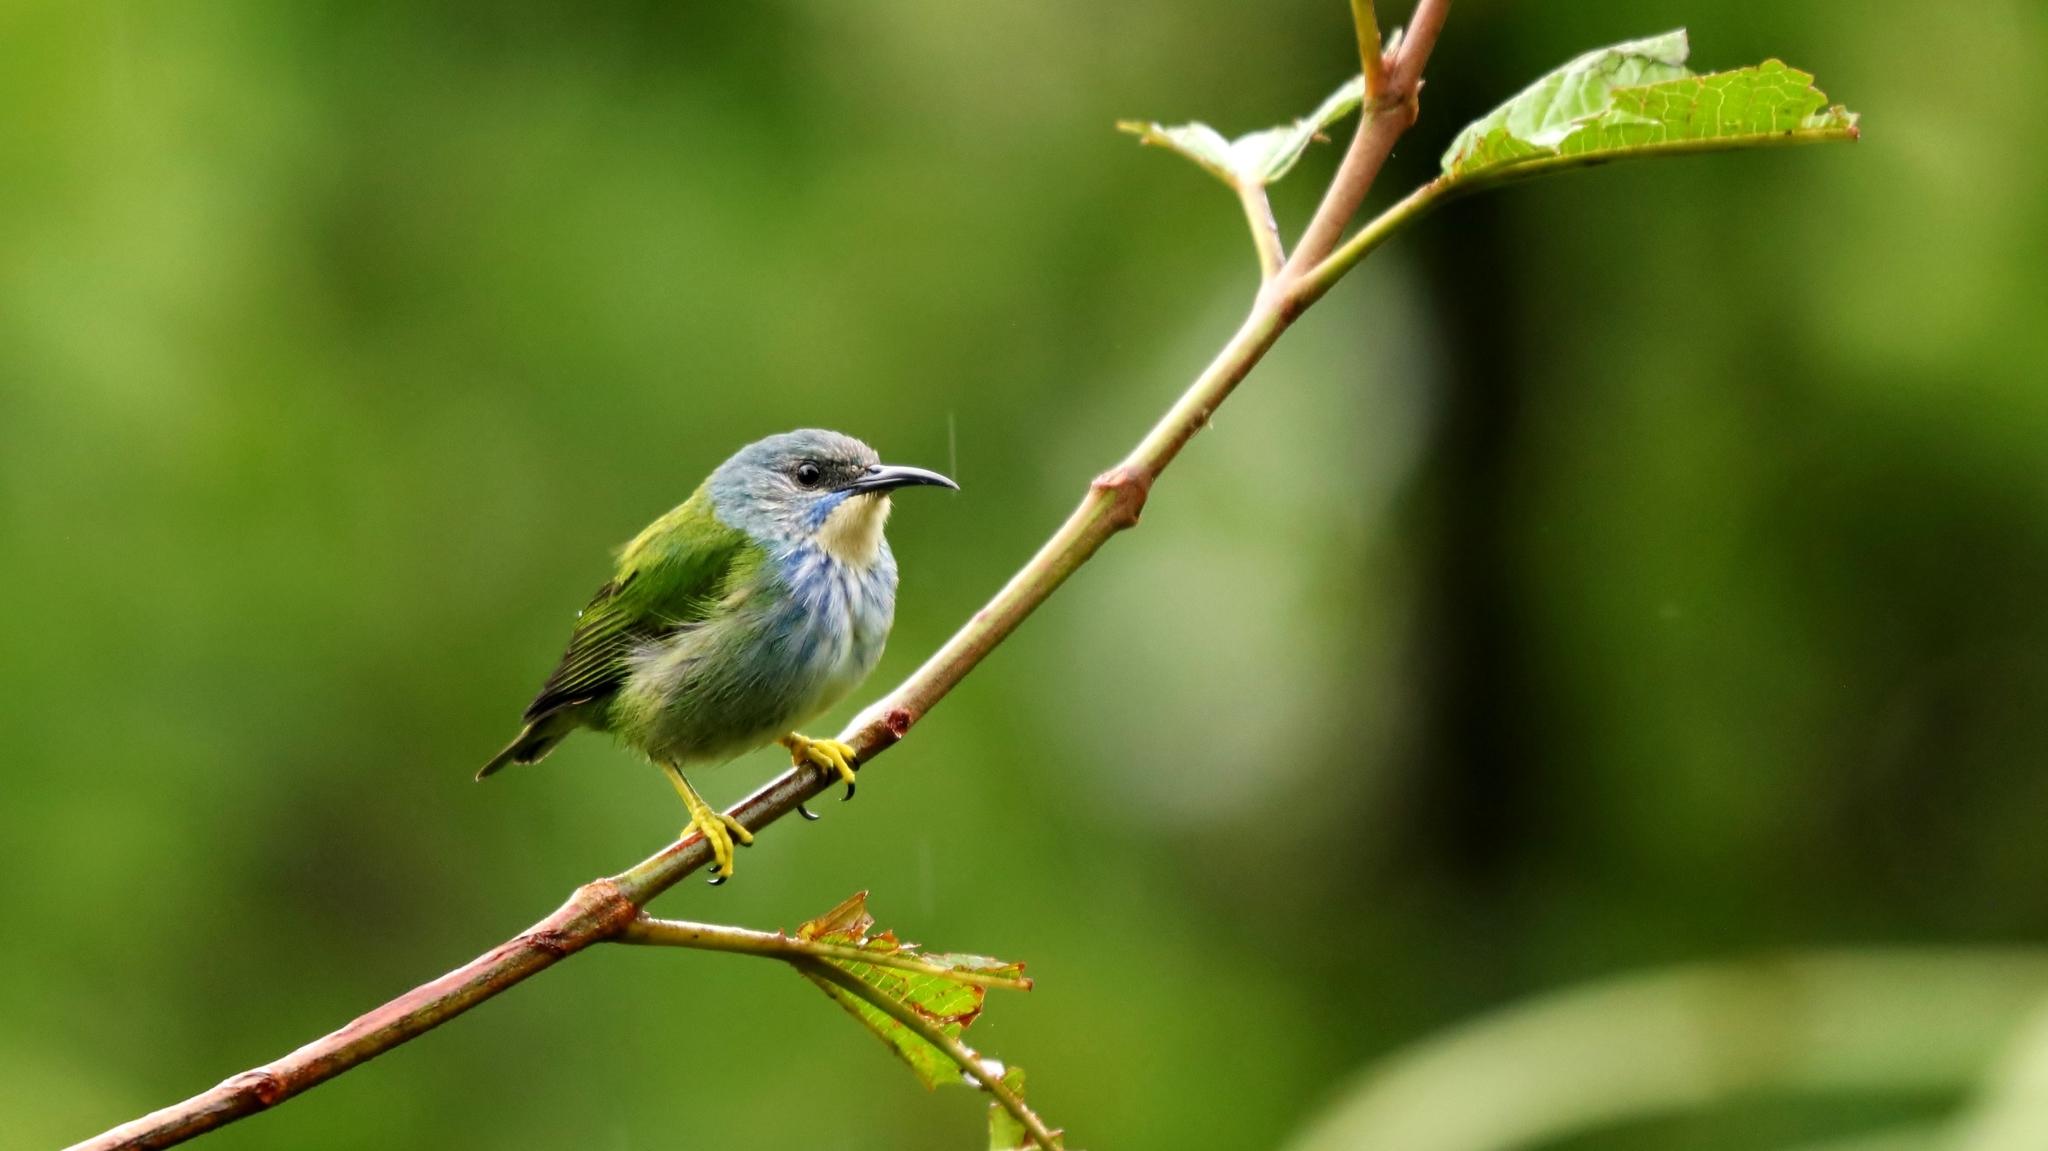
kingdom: Animalia
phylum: Chordata
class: Aves
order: Passeriformes
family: Thraupidae
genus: Cyanerpes
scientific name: Cyanerpes lucidus
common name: Shining honeycreeper
